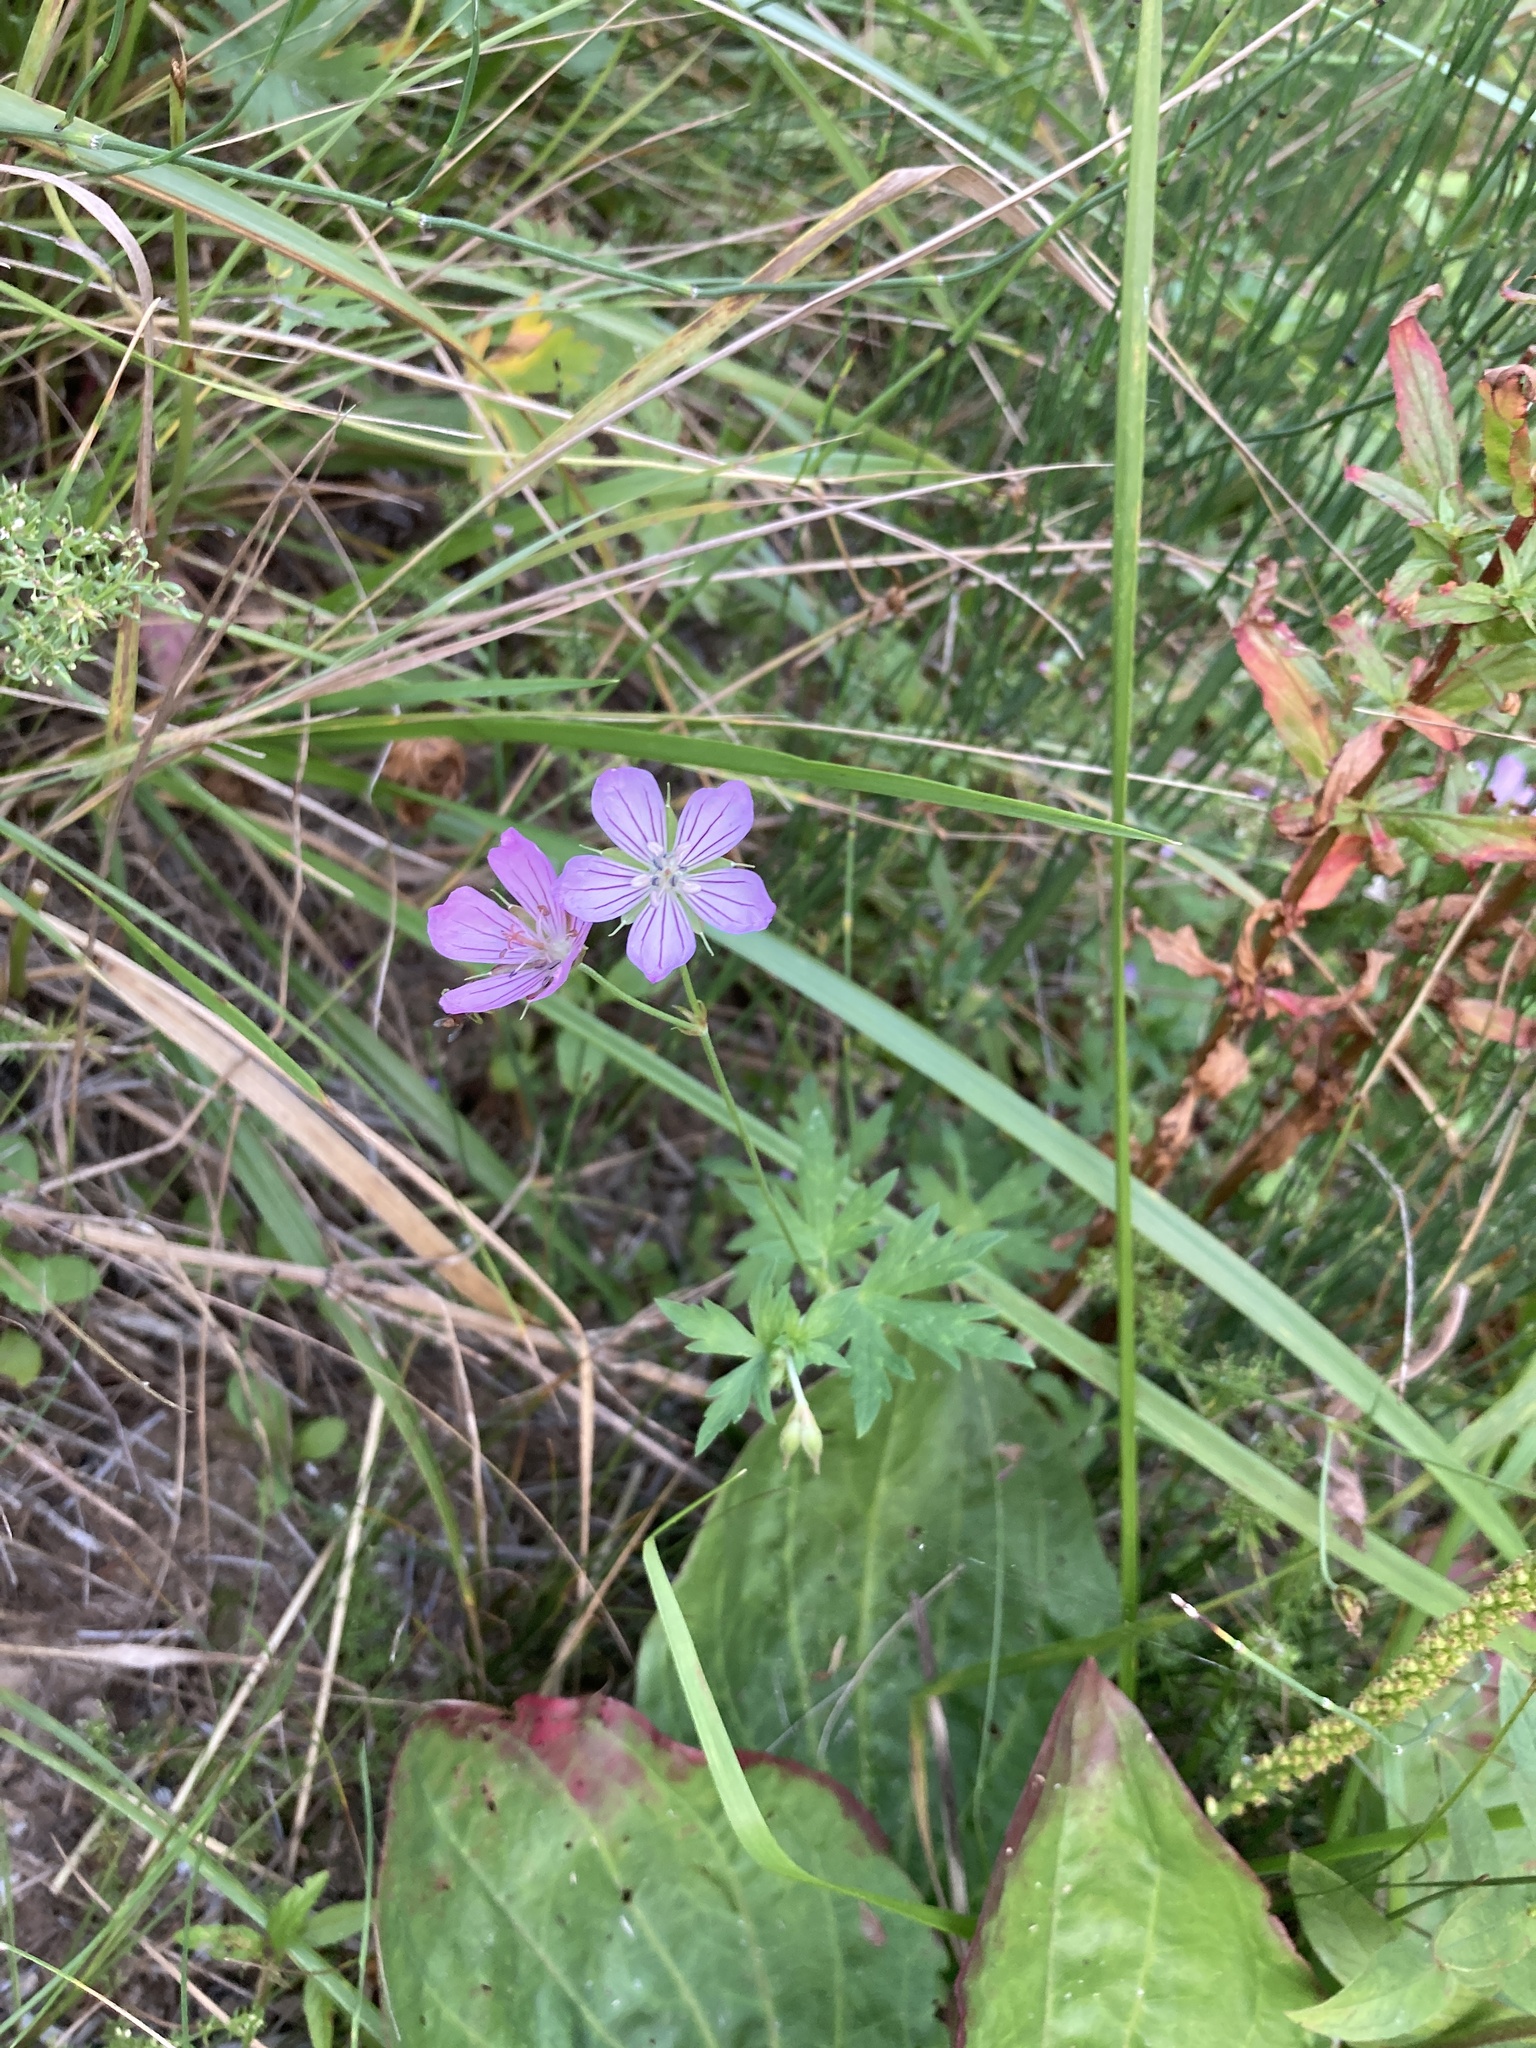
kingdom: Plantae
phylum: Tracheophyta
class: Magnoliopsida
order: Geraniales
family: Geraniaceae
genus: Geranium
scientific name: Geranium collinum
